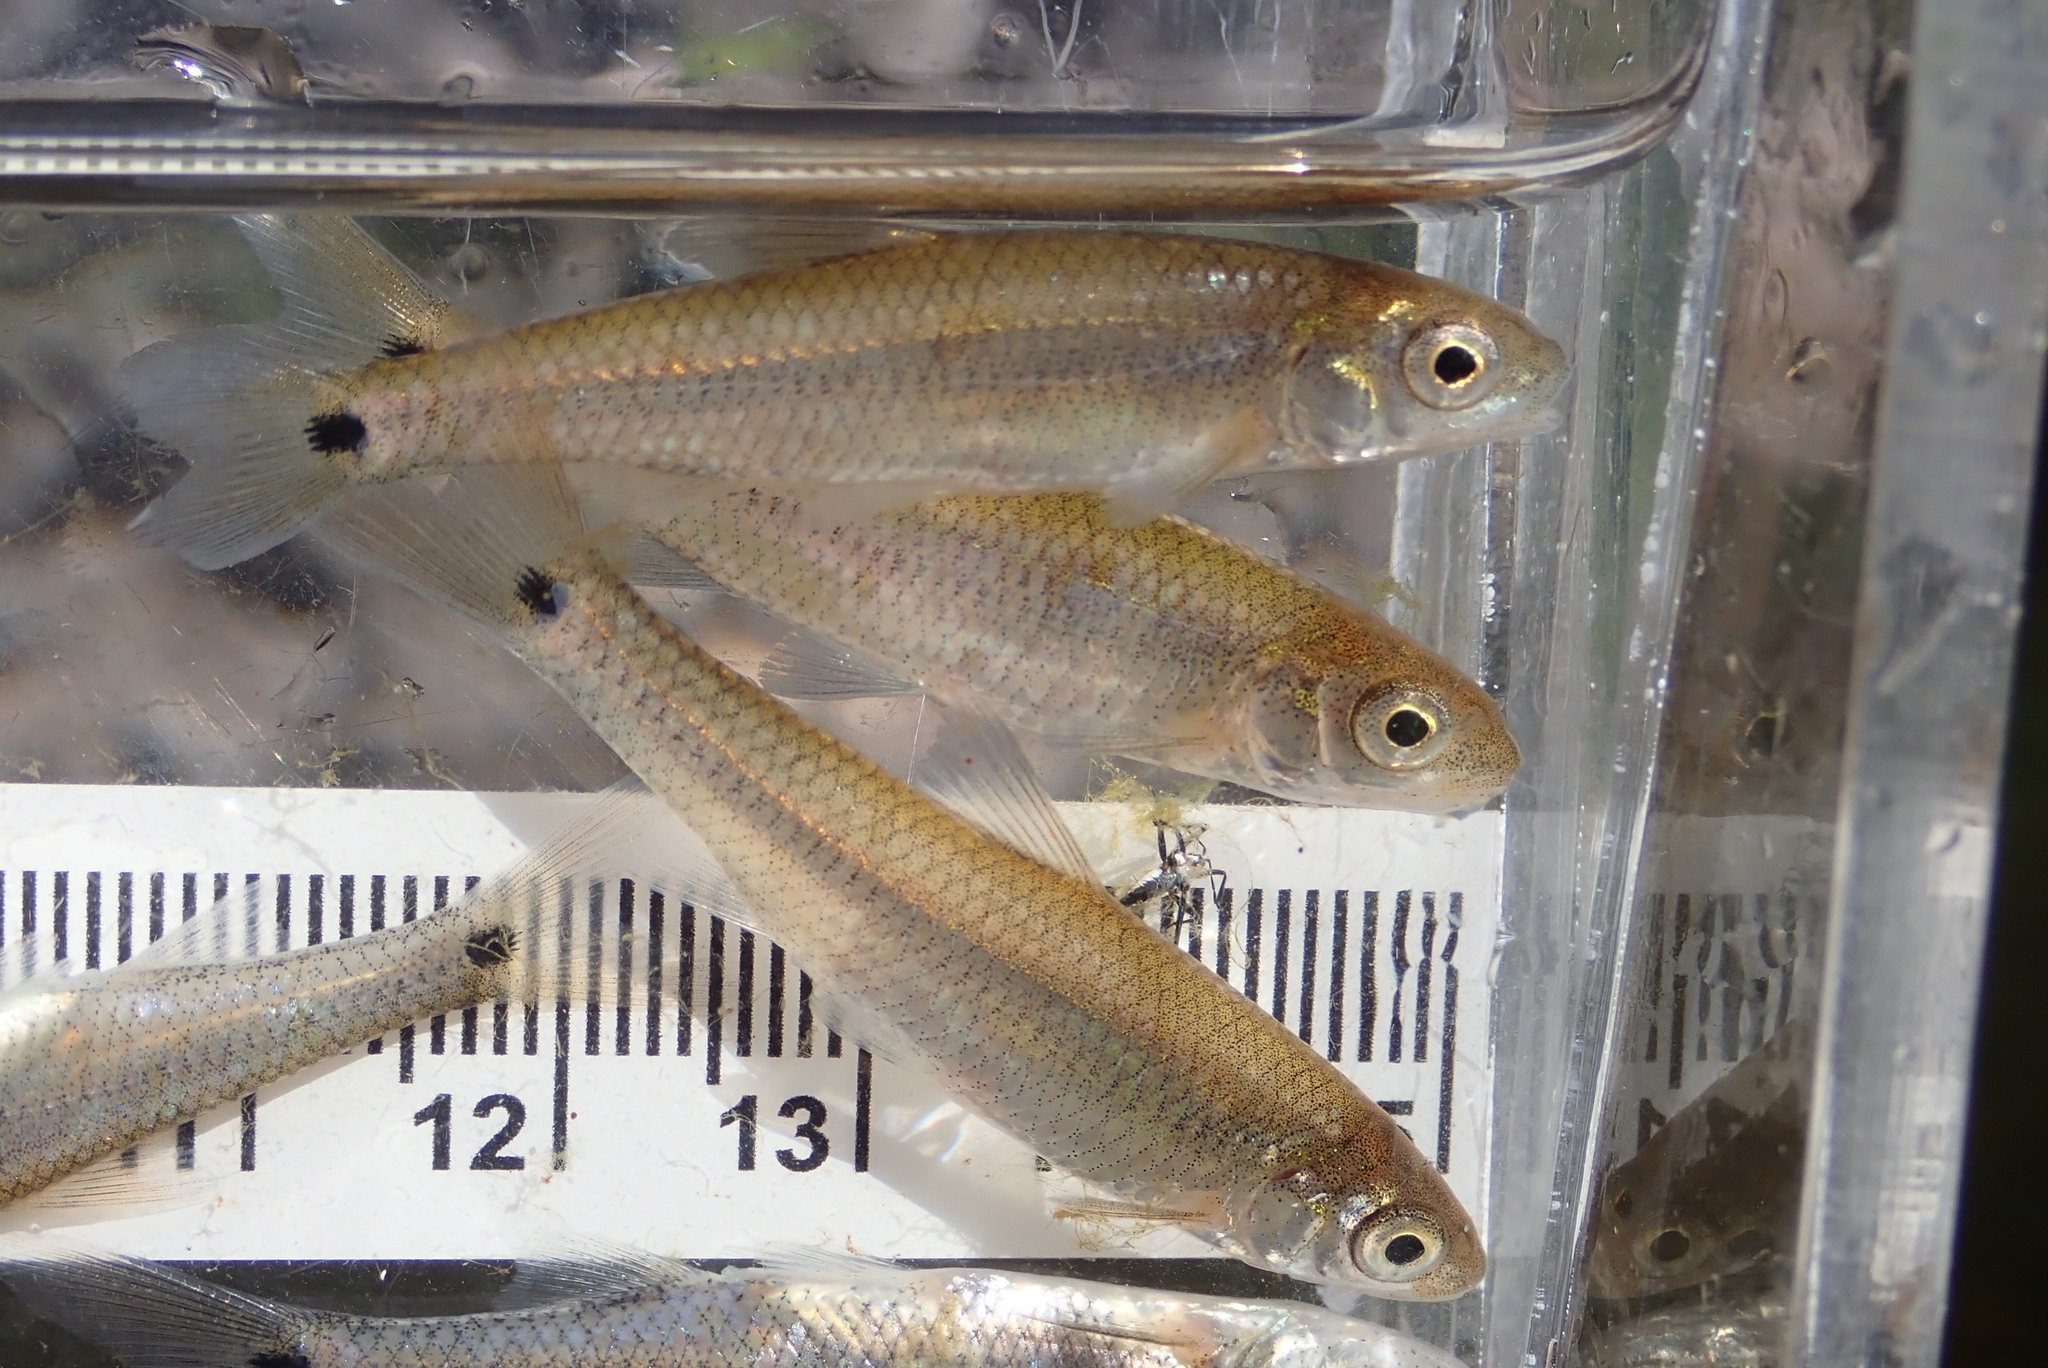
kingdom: Animalia
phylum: Chordata
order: Cypriniformes
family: Cyprinidae
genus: Notropis
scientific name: Notropis
